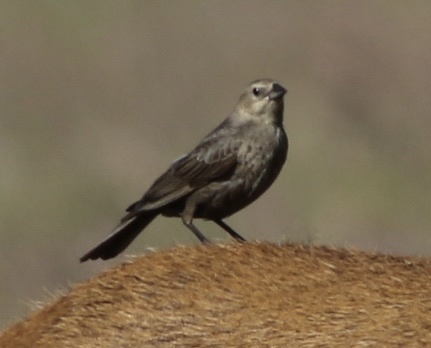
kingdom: Animalia
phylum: Chordata
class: Aves
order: Passeriformes
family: Icteridae
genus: Molothrus
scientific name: Molothrus ater
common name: Brown-headed cowbird
